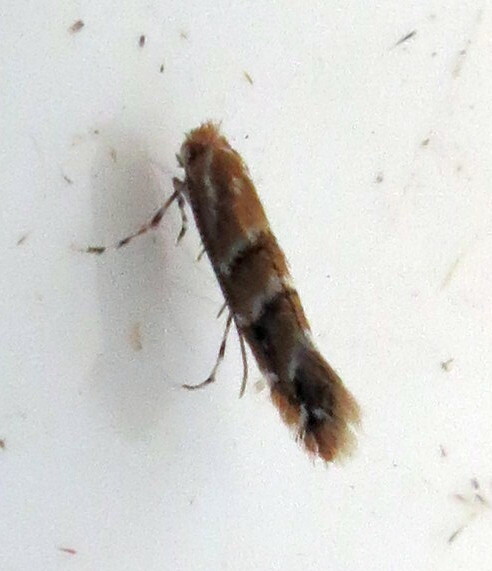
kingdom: Animalia
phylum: Arthropoda
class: Insecta
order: Lepidoptera
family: Gracillariidae
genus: Cameraria
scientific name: Cameraria ohridella
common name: Horse-chestnut leaf-miner
